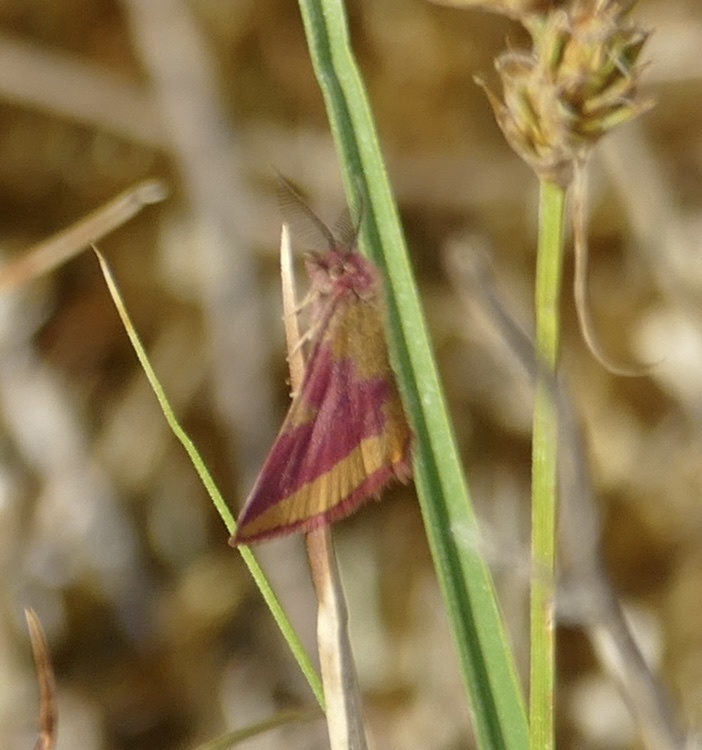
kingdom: Animalia
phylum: Arthropoda
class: Insecta
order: Lepidoptera
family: Geometridae
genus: Lythria
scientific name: Lythria cruentaria
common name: Purple-barred yellow
